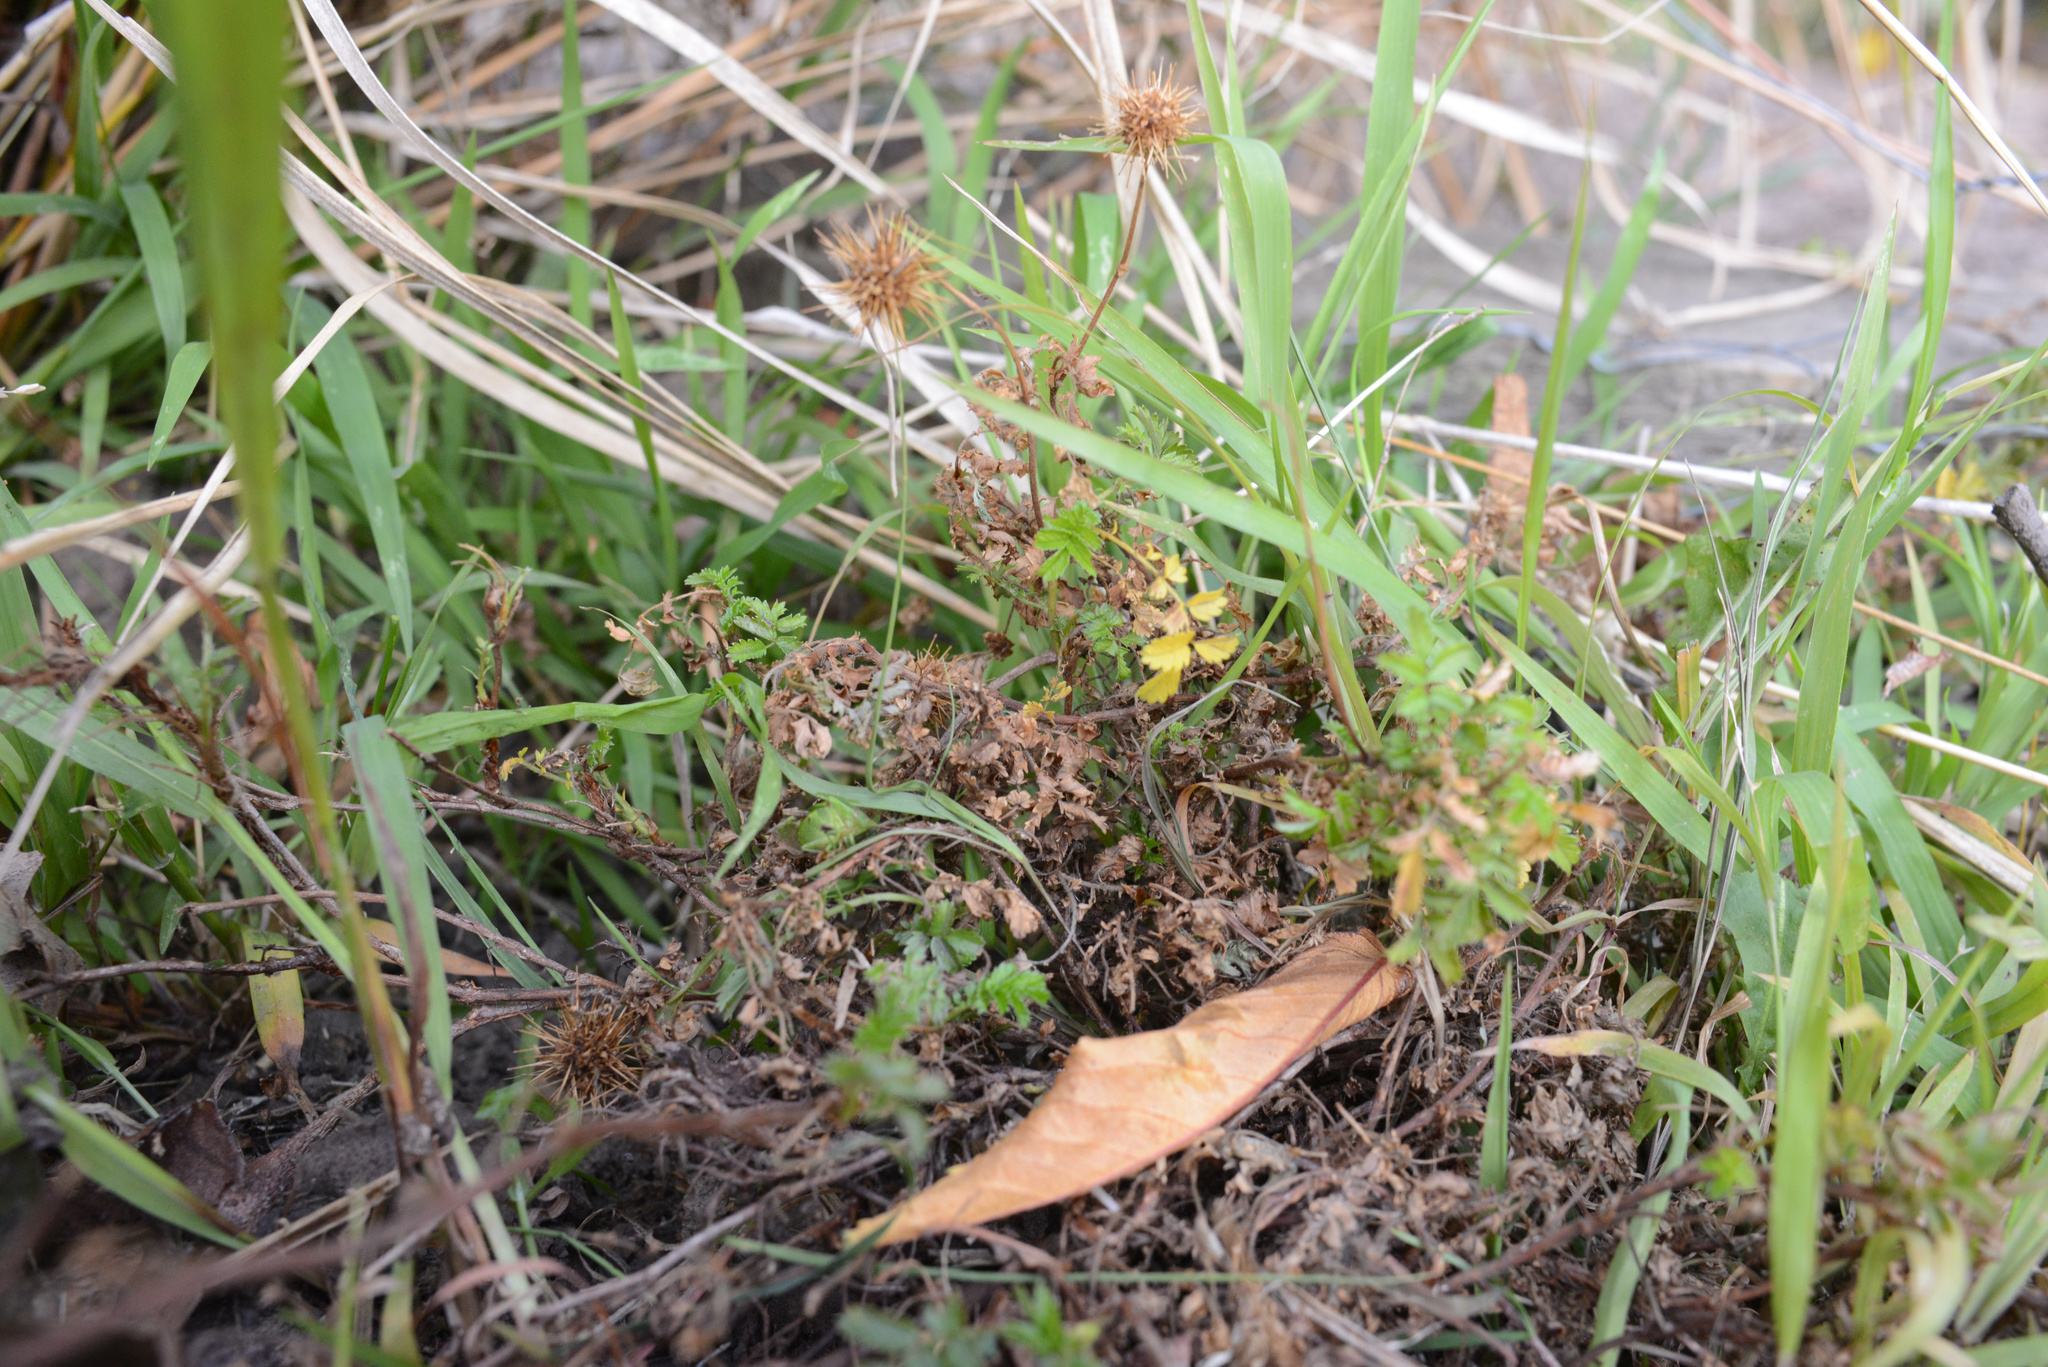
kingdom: Plantae
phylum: Tracheophyta
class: Magnoliopsida
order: Rosales
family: Rosaceae
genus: Acaena
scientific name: Acaena novae-zelandiae
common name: Pirri-pirri-bur
